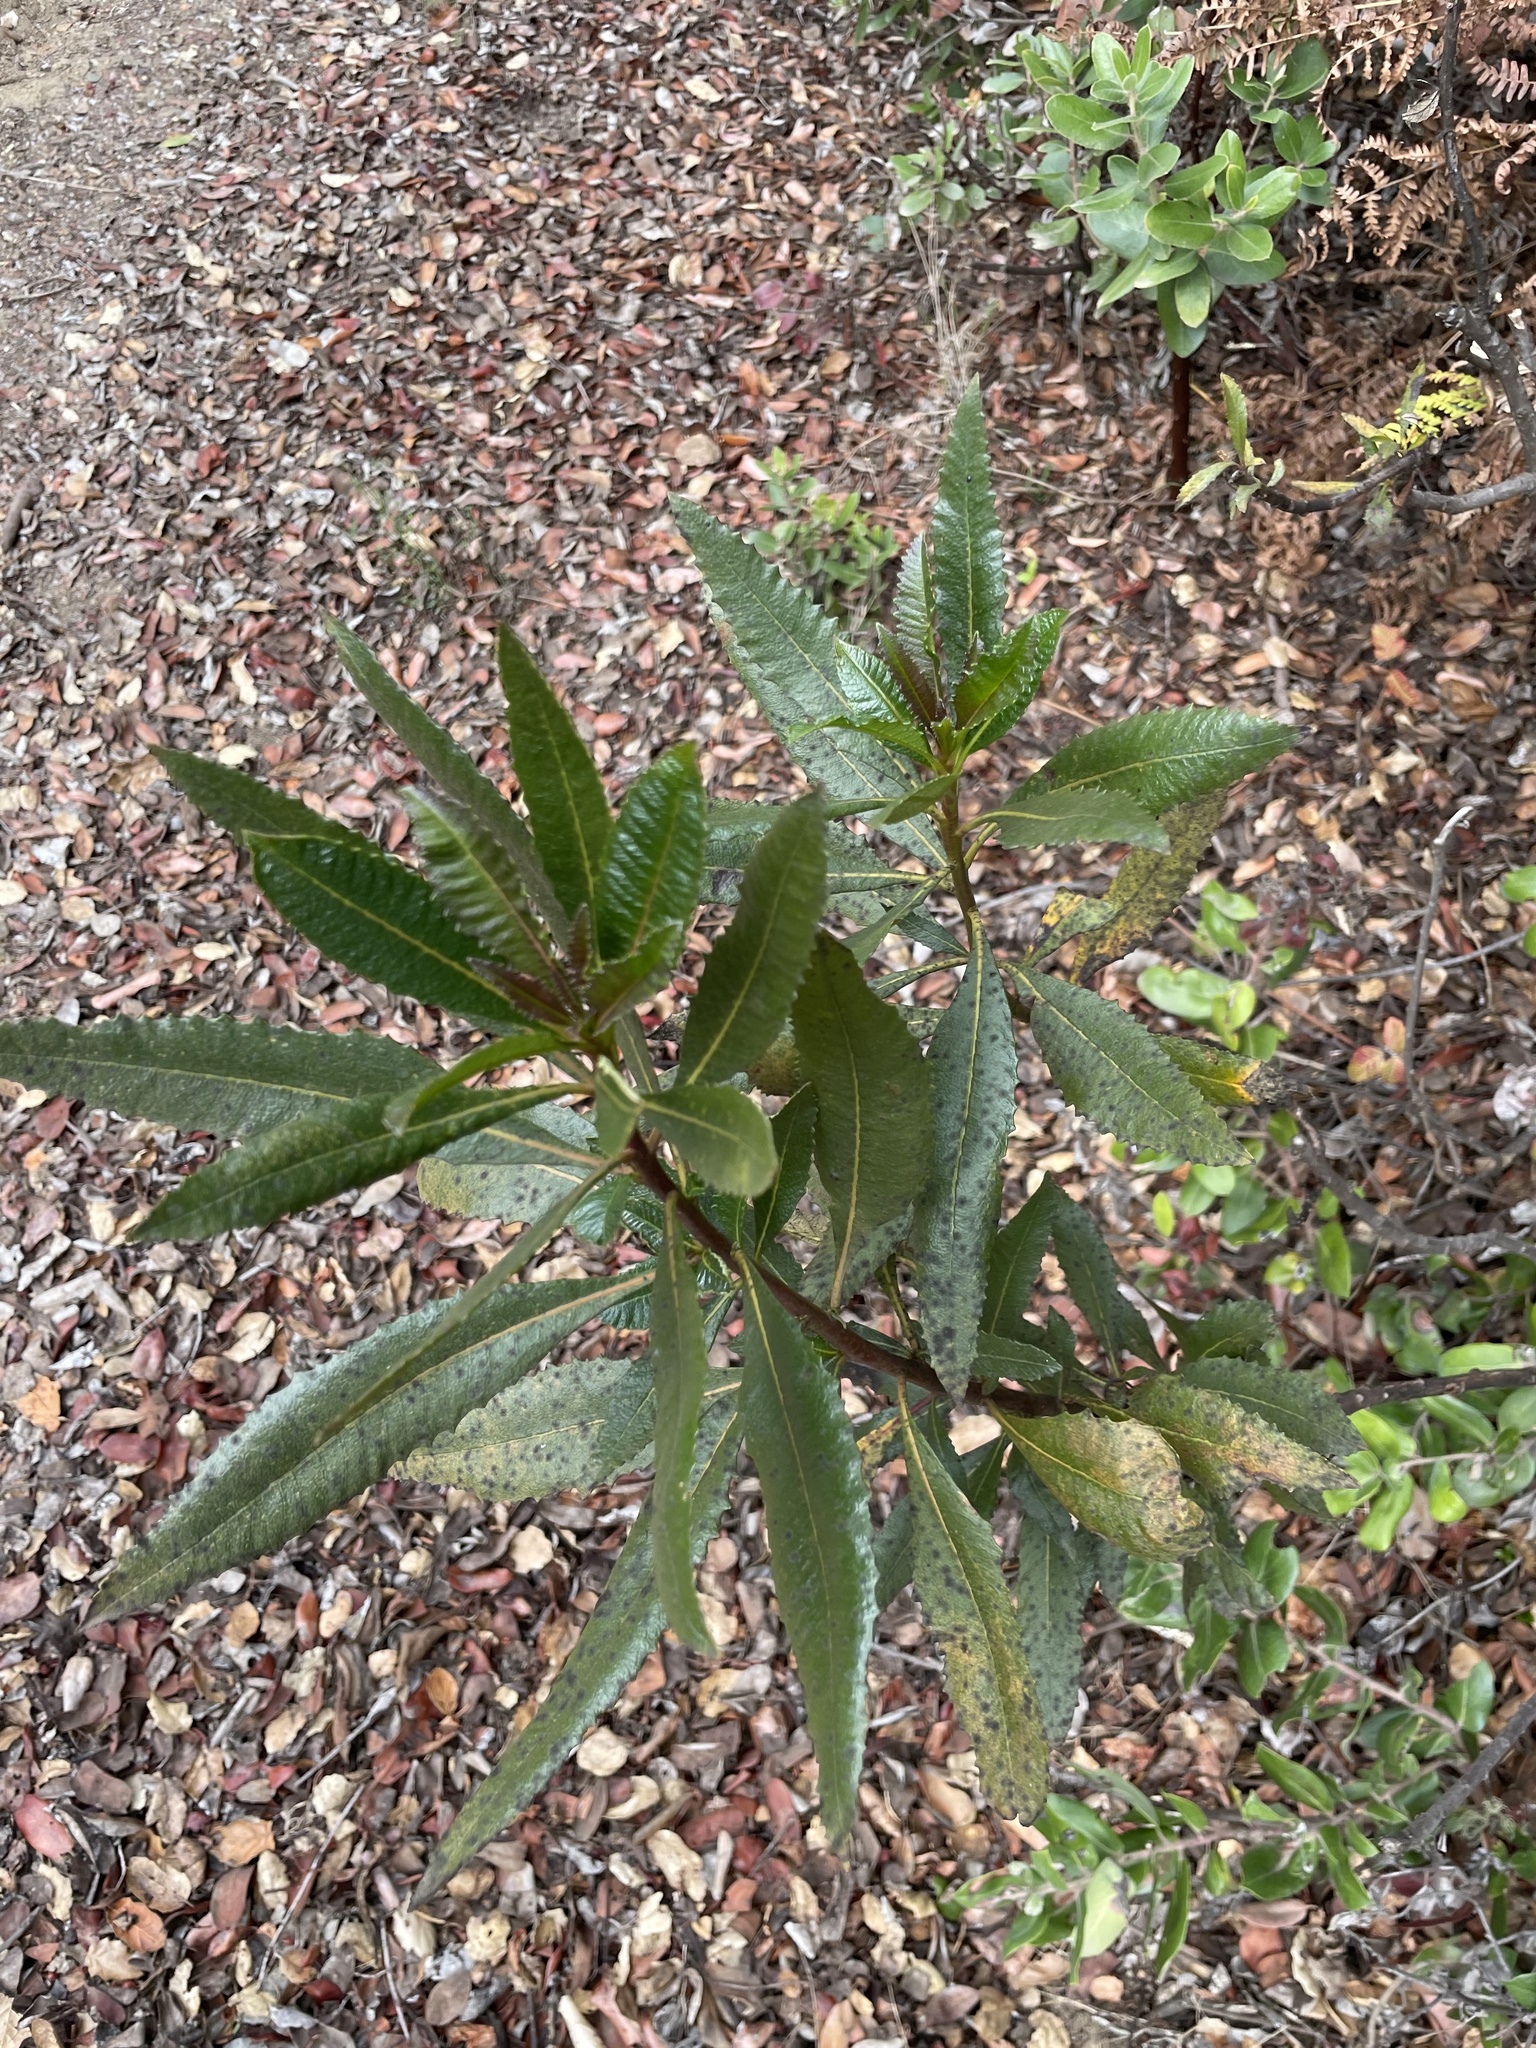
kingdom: Plantae
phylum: Tracheophyta
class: Magnoliopsida
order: Boraginales
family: Namaceae
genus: Eriodictyon
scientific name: Eriodictyon californicum
